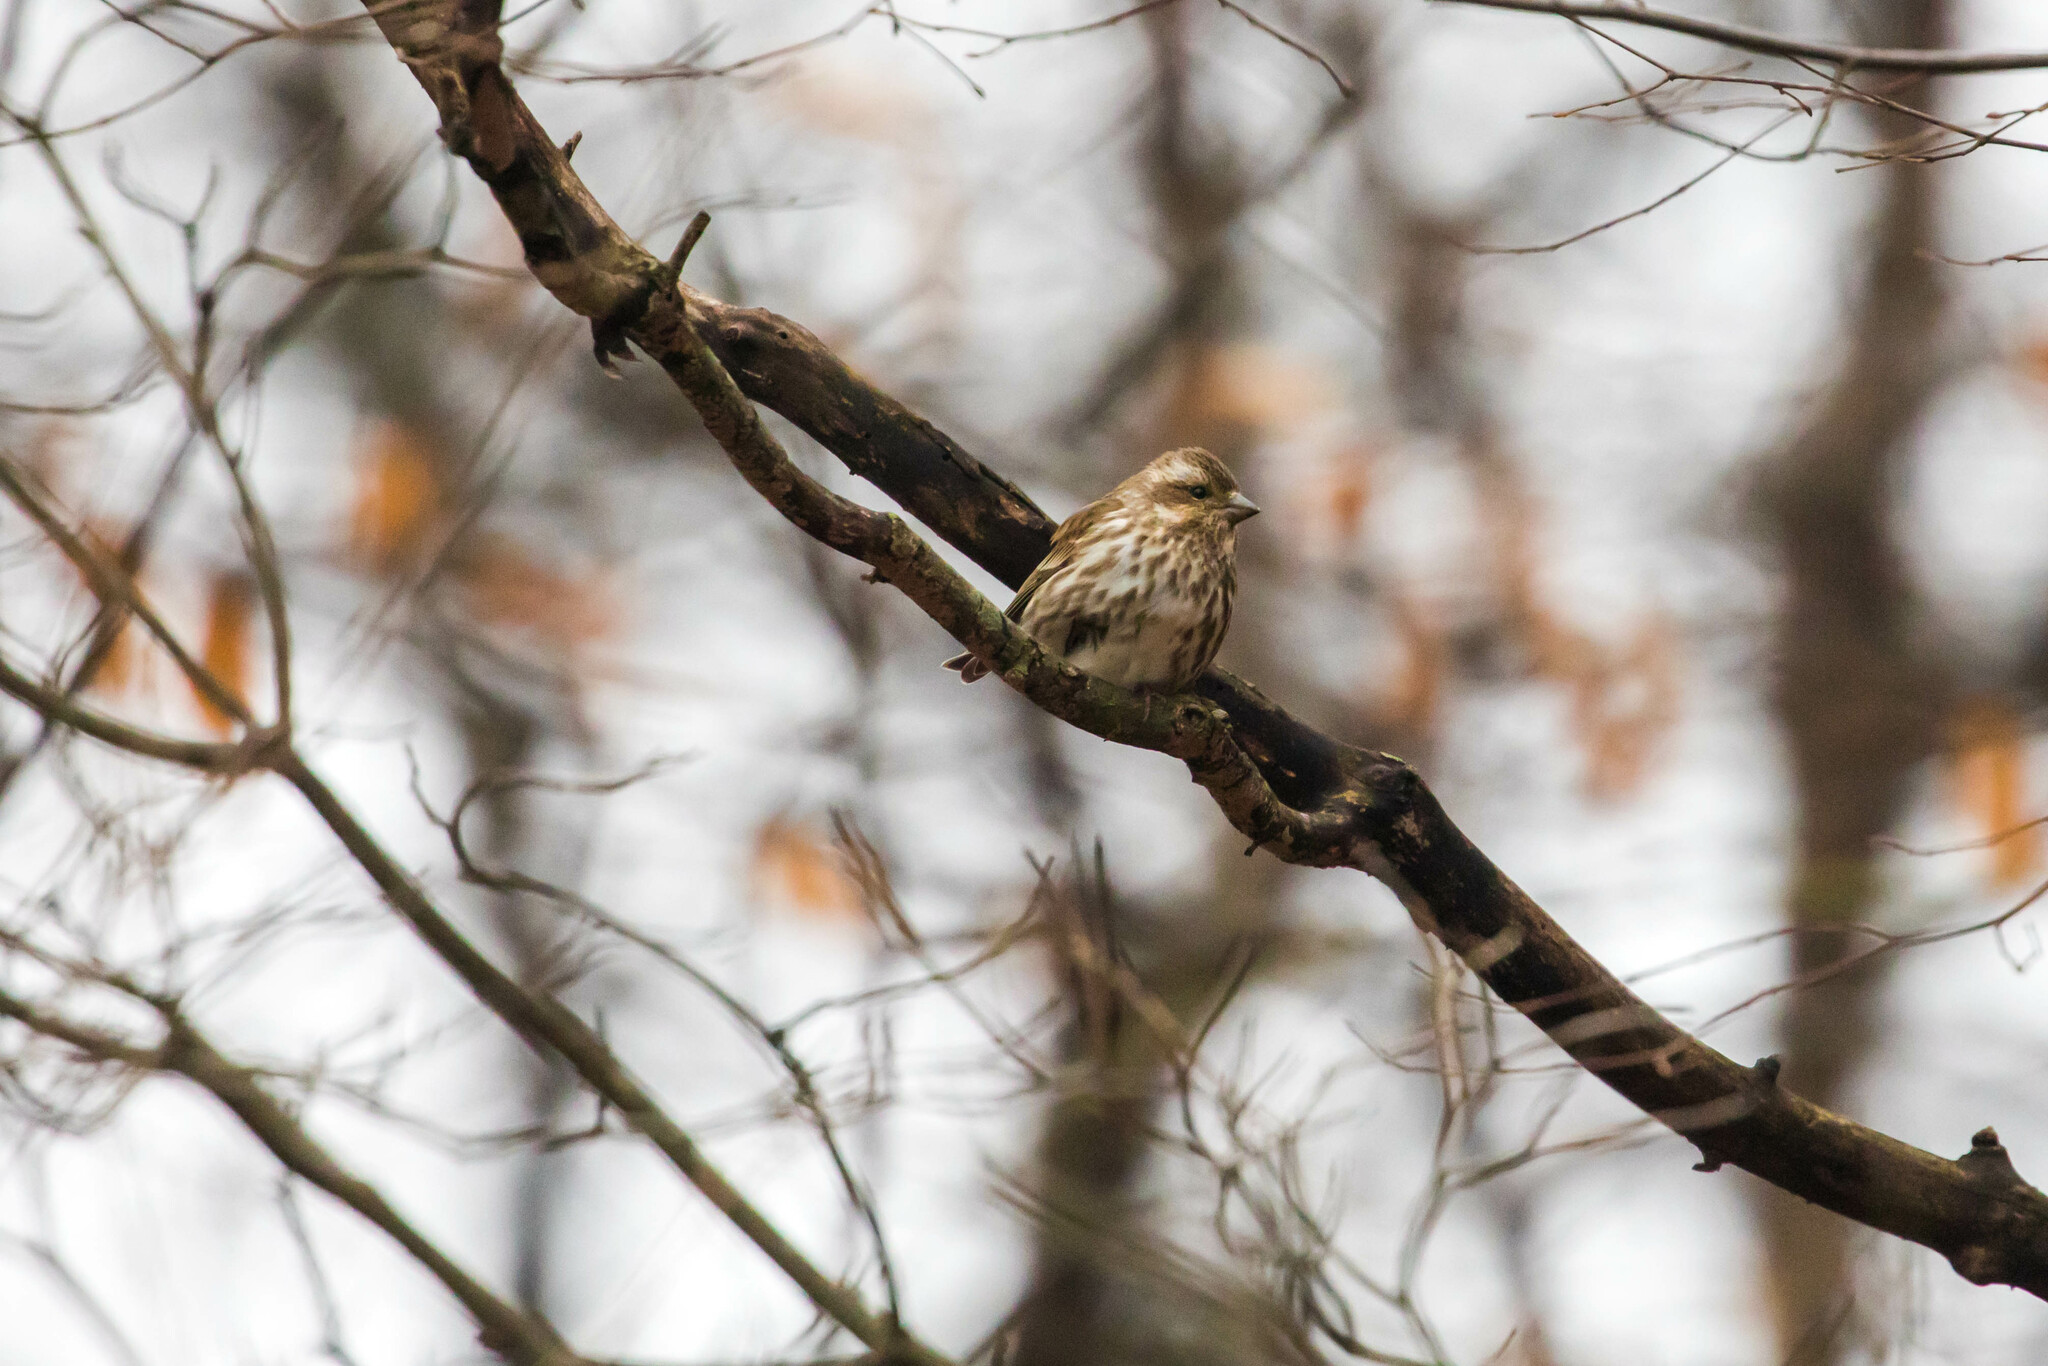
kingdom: Animalia
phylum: Chordata
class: Aves
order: Passeriformes
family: Fringillidae
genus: Haemorhous
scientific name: Haemorhous purpureus
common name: Purple finch
